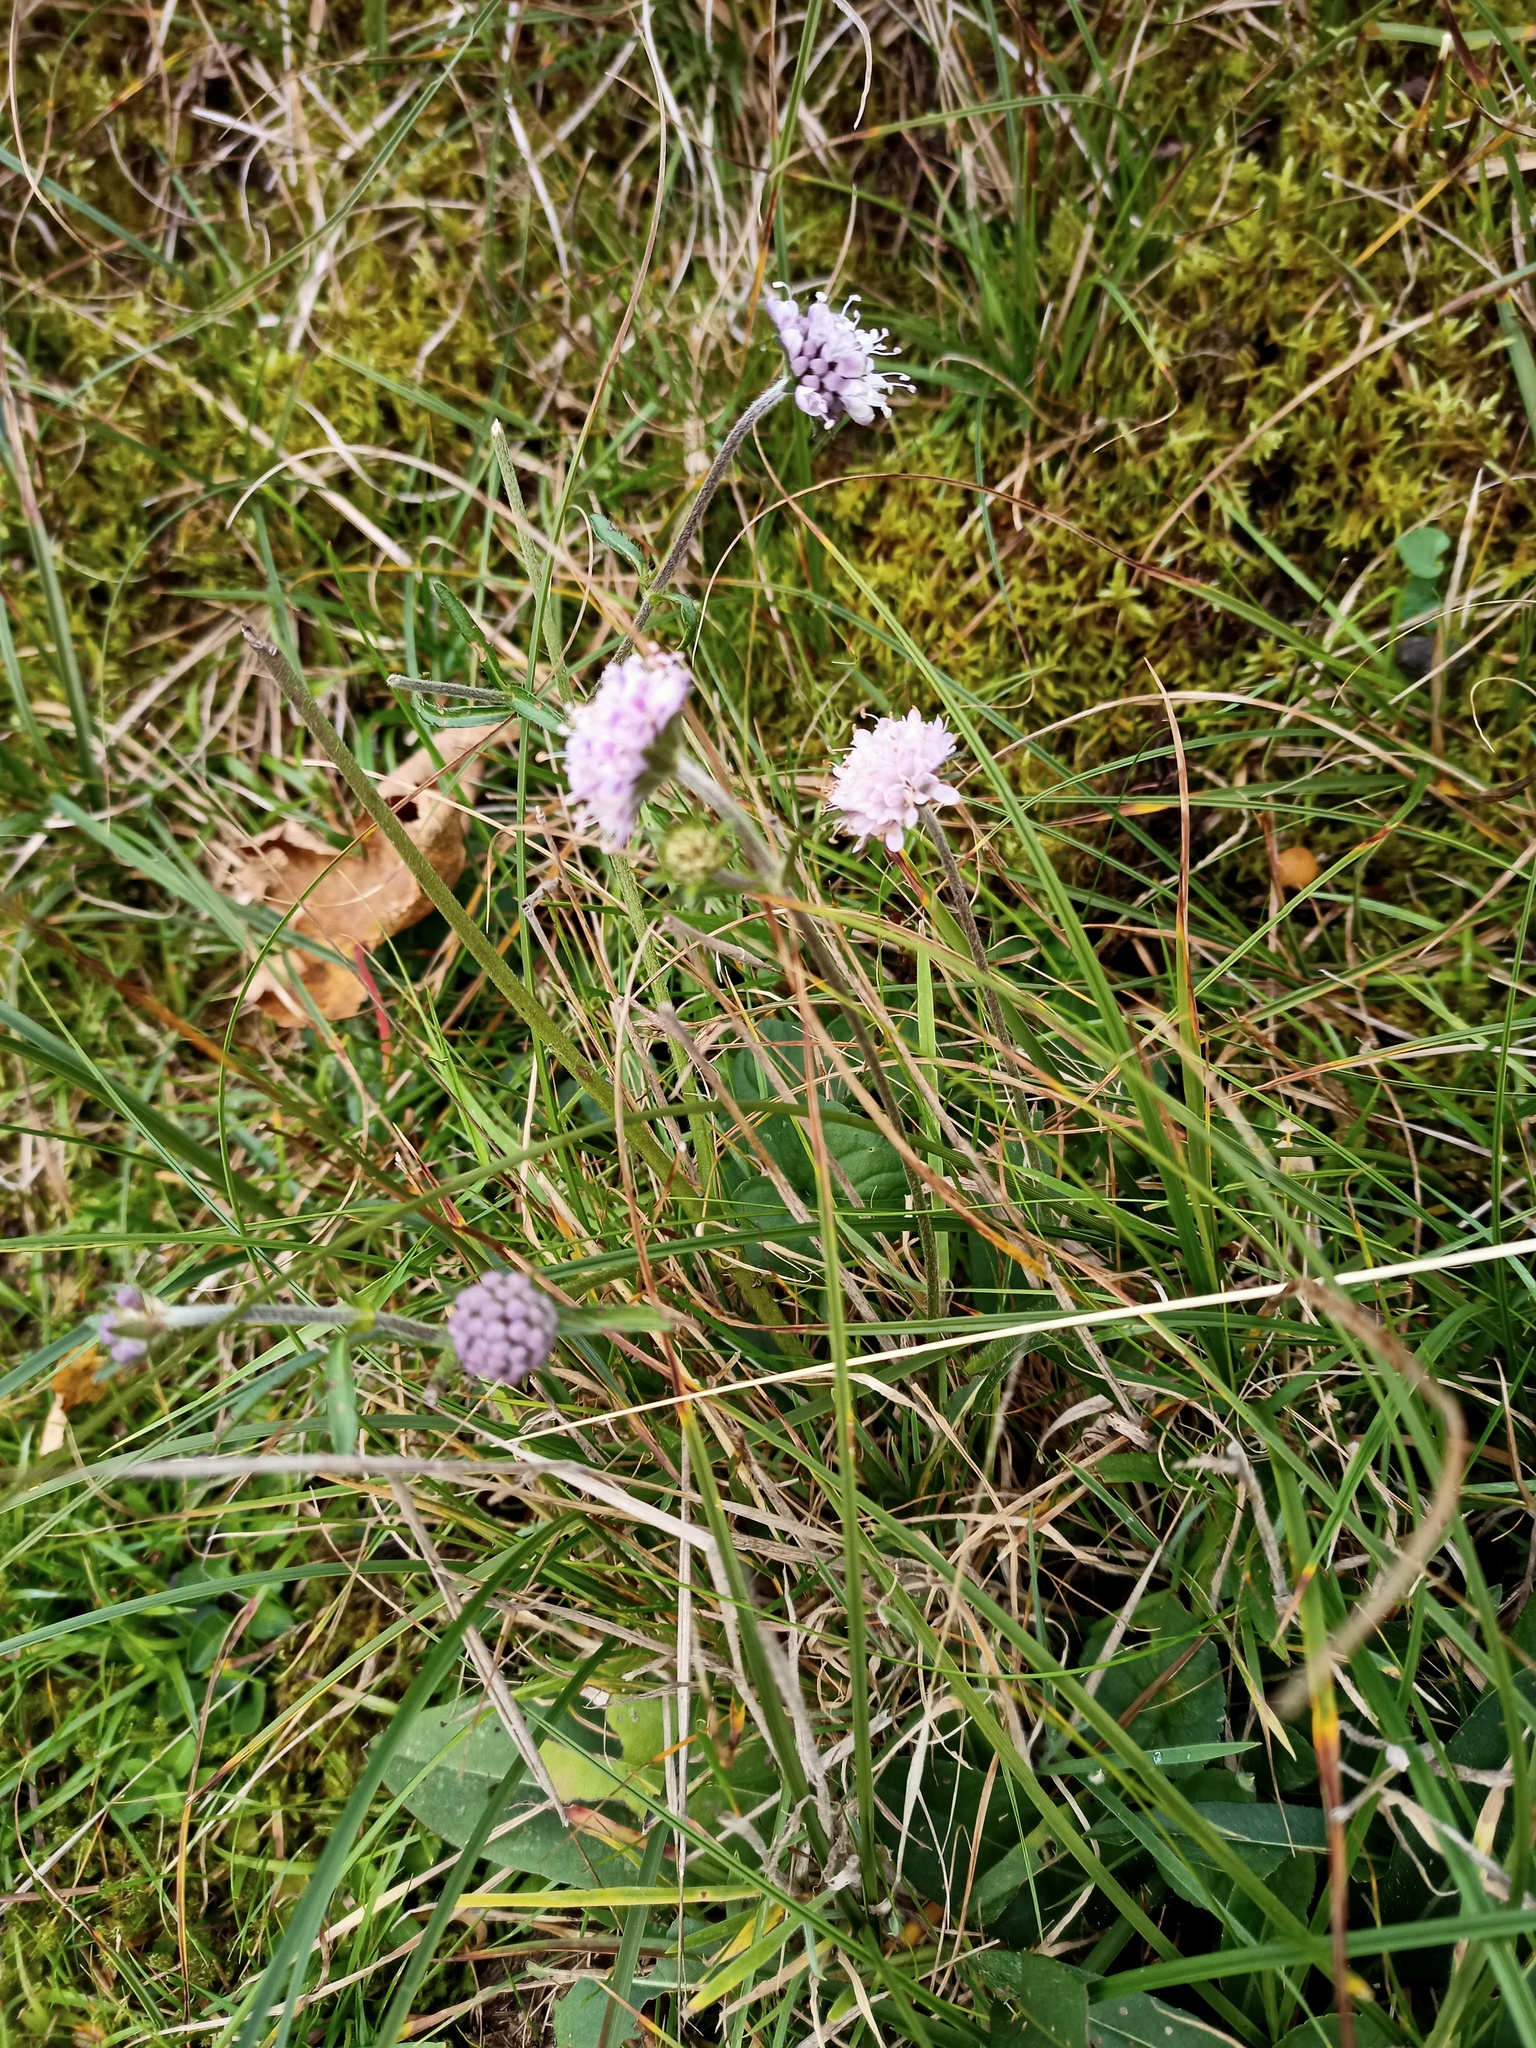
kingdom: Plantae
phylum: Tracheophyta
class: Magnoliopsida
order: Dipsacales
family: Caprifoliaceae
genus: Succisa
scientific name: Succisa pratensis
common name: Devil's-bit
